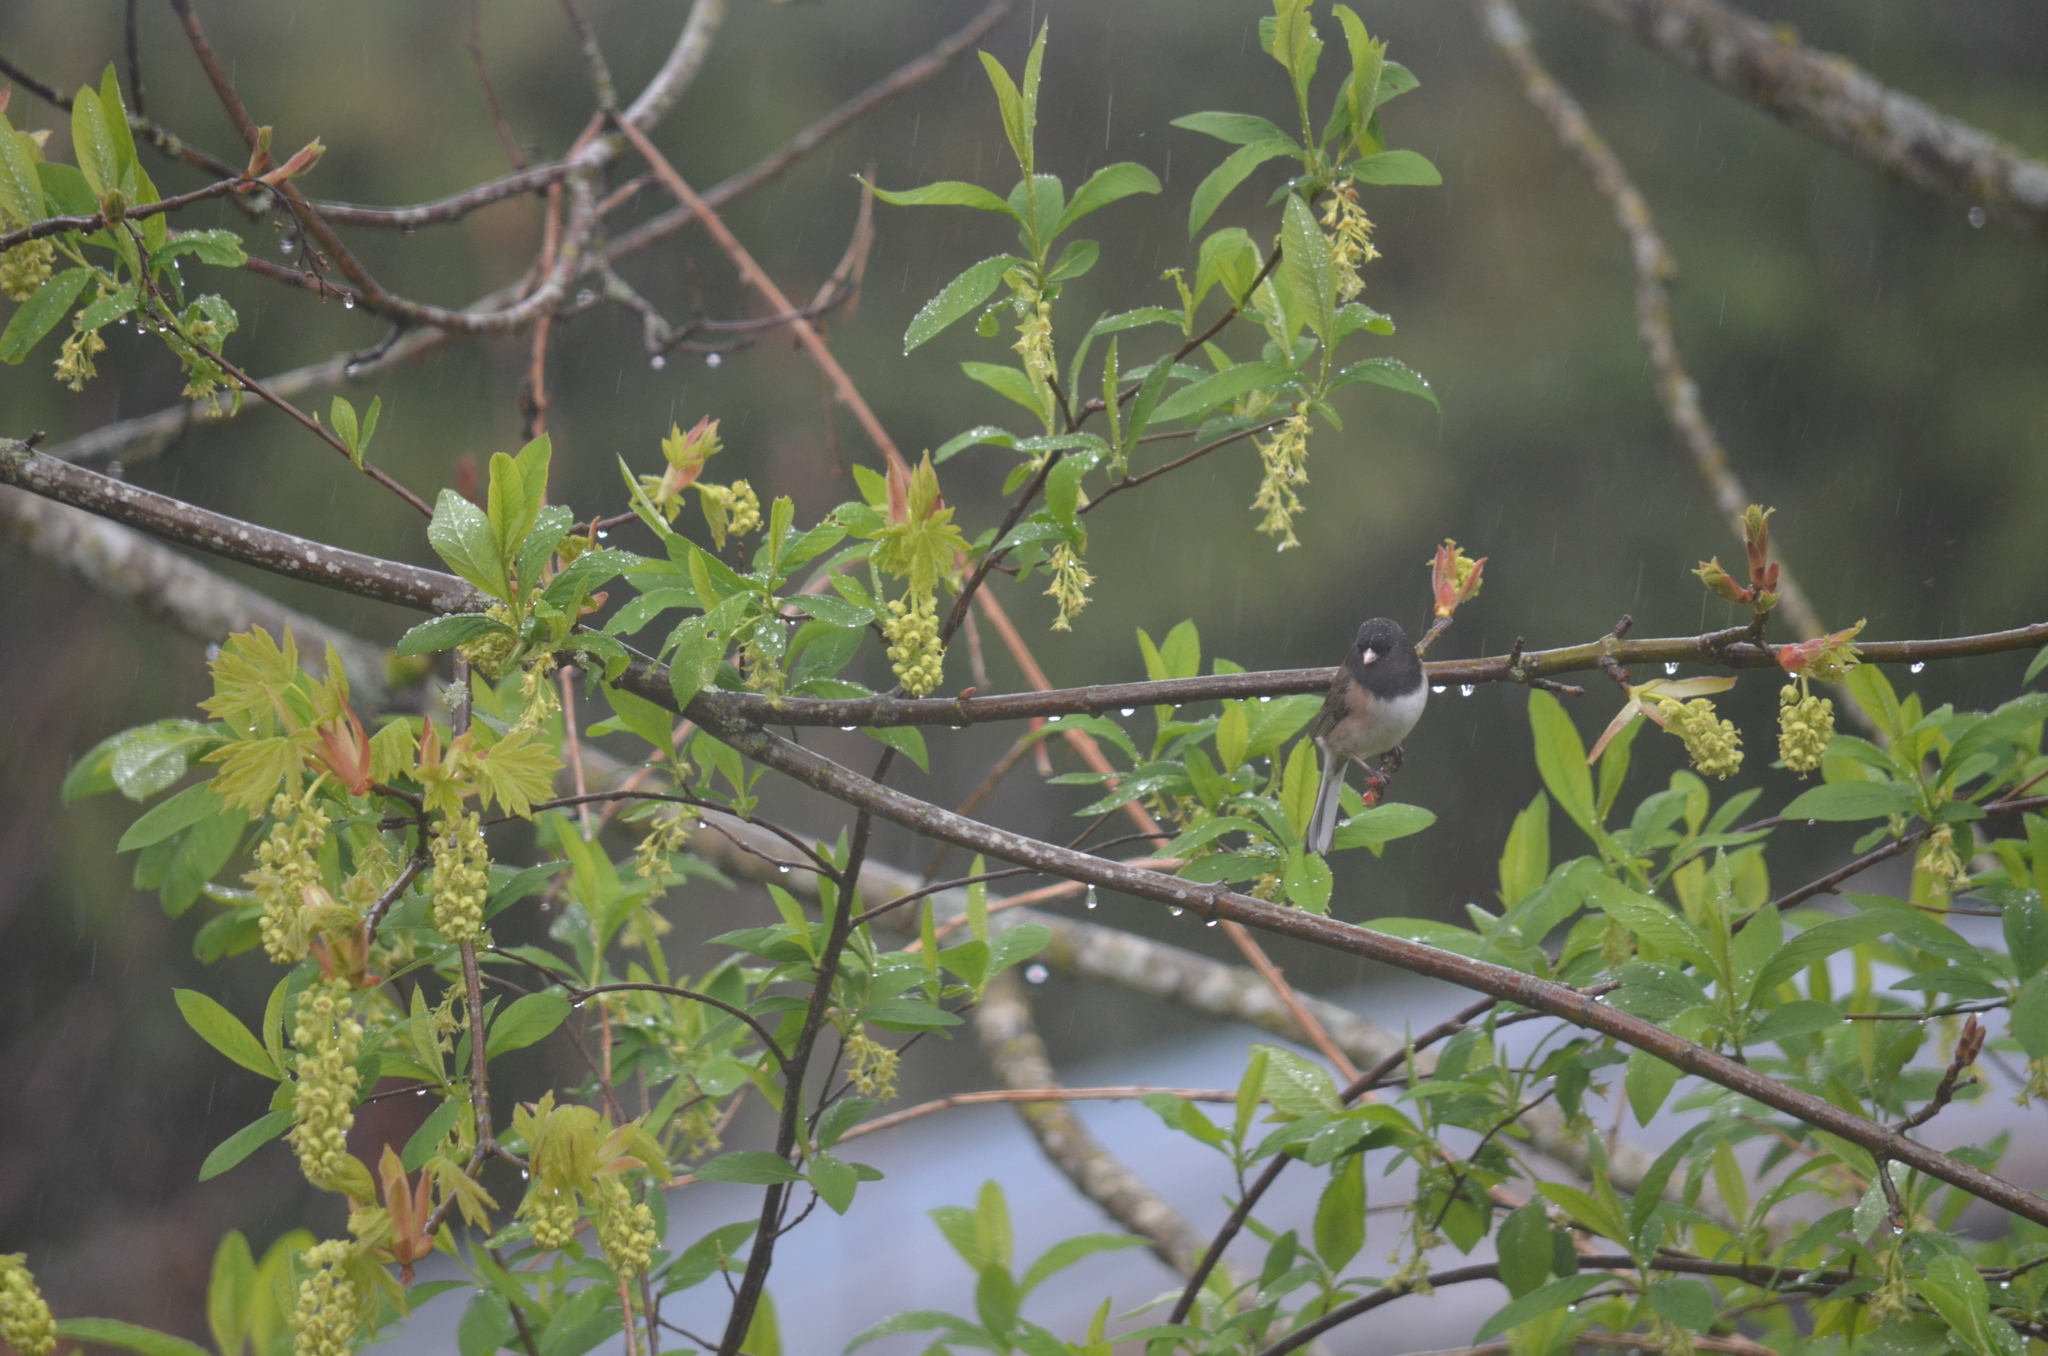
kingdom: Animalia
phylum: Chordata
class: Aves
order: Passeriformes
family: Passerellidae
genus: Junco
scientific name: Junco hyemalis
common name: Dark-eyed junco
